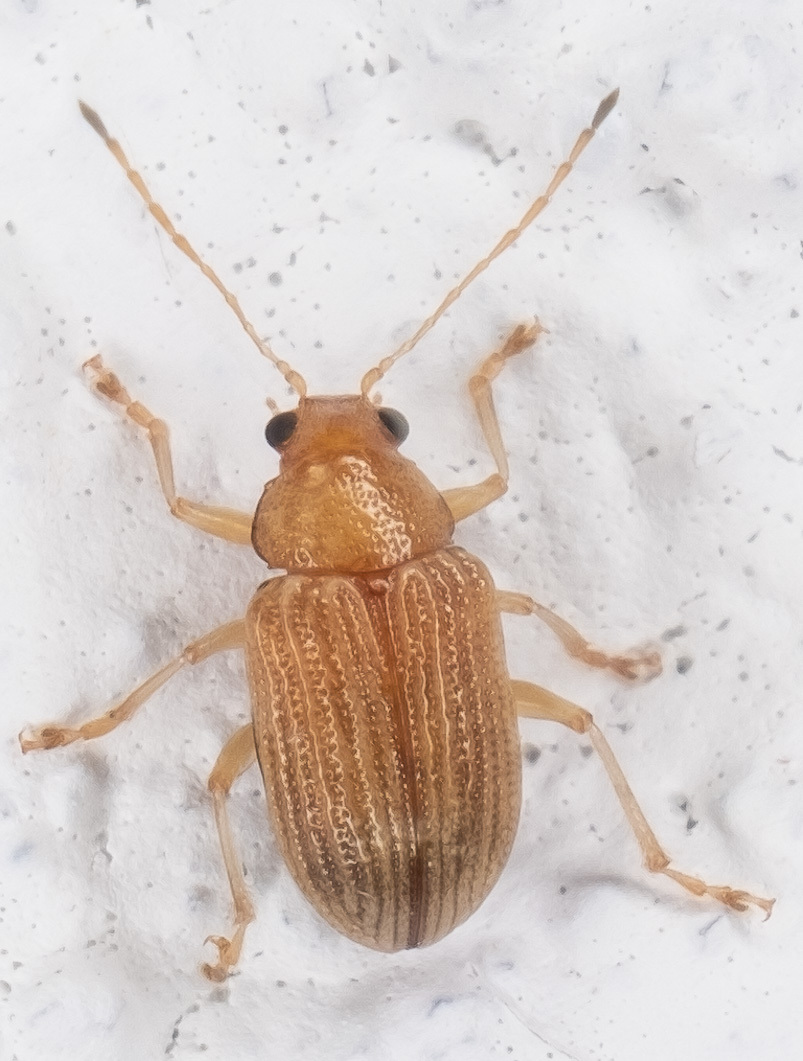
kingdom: Animalia
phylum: Arthropoda
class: Insecta
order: Coleoptera
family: Chrysomelidae
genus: Colaspis
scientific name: Colaspis brunnea
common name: Grape colaspis
